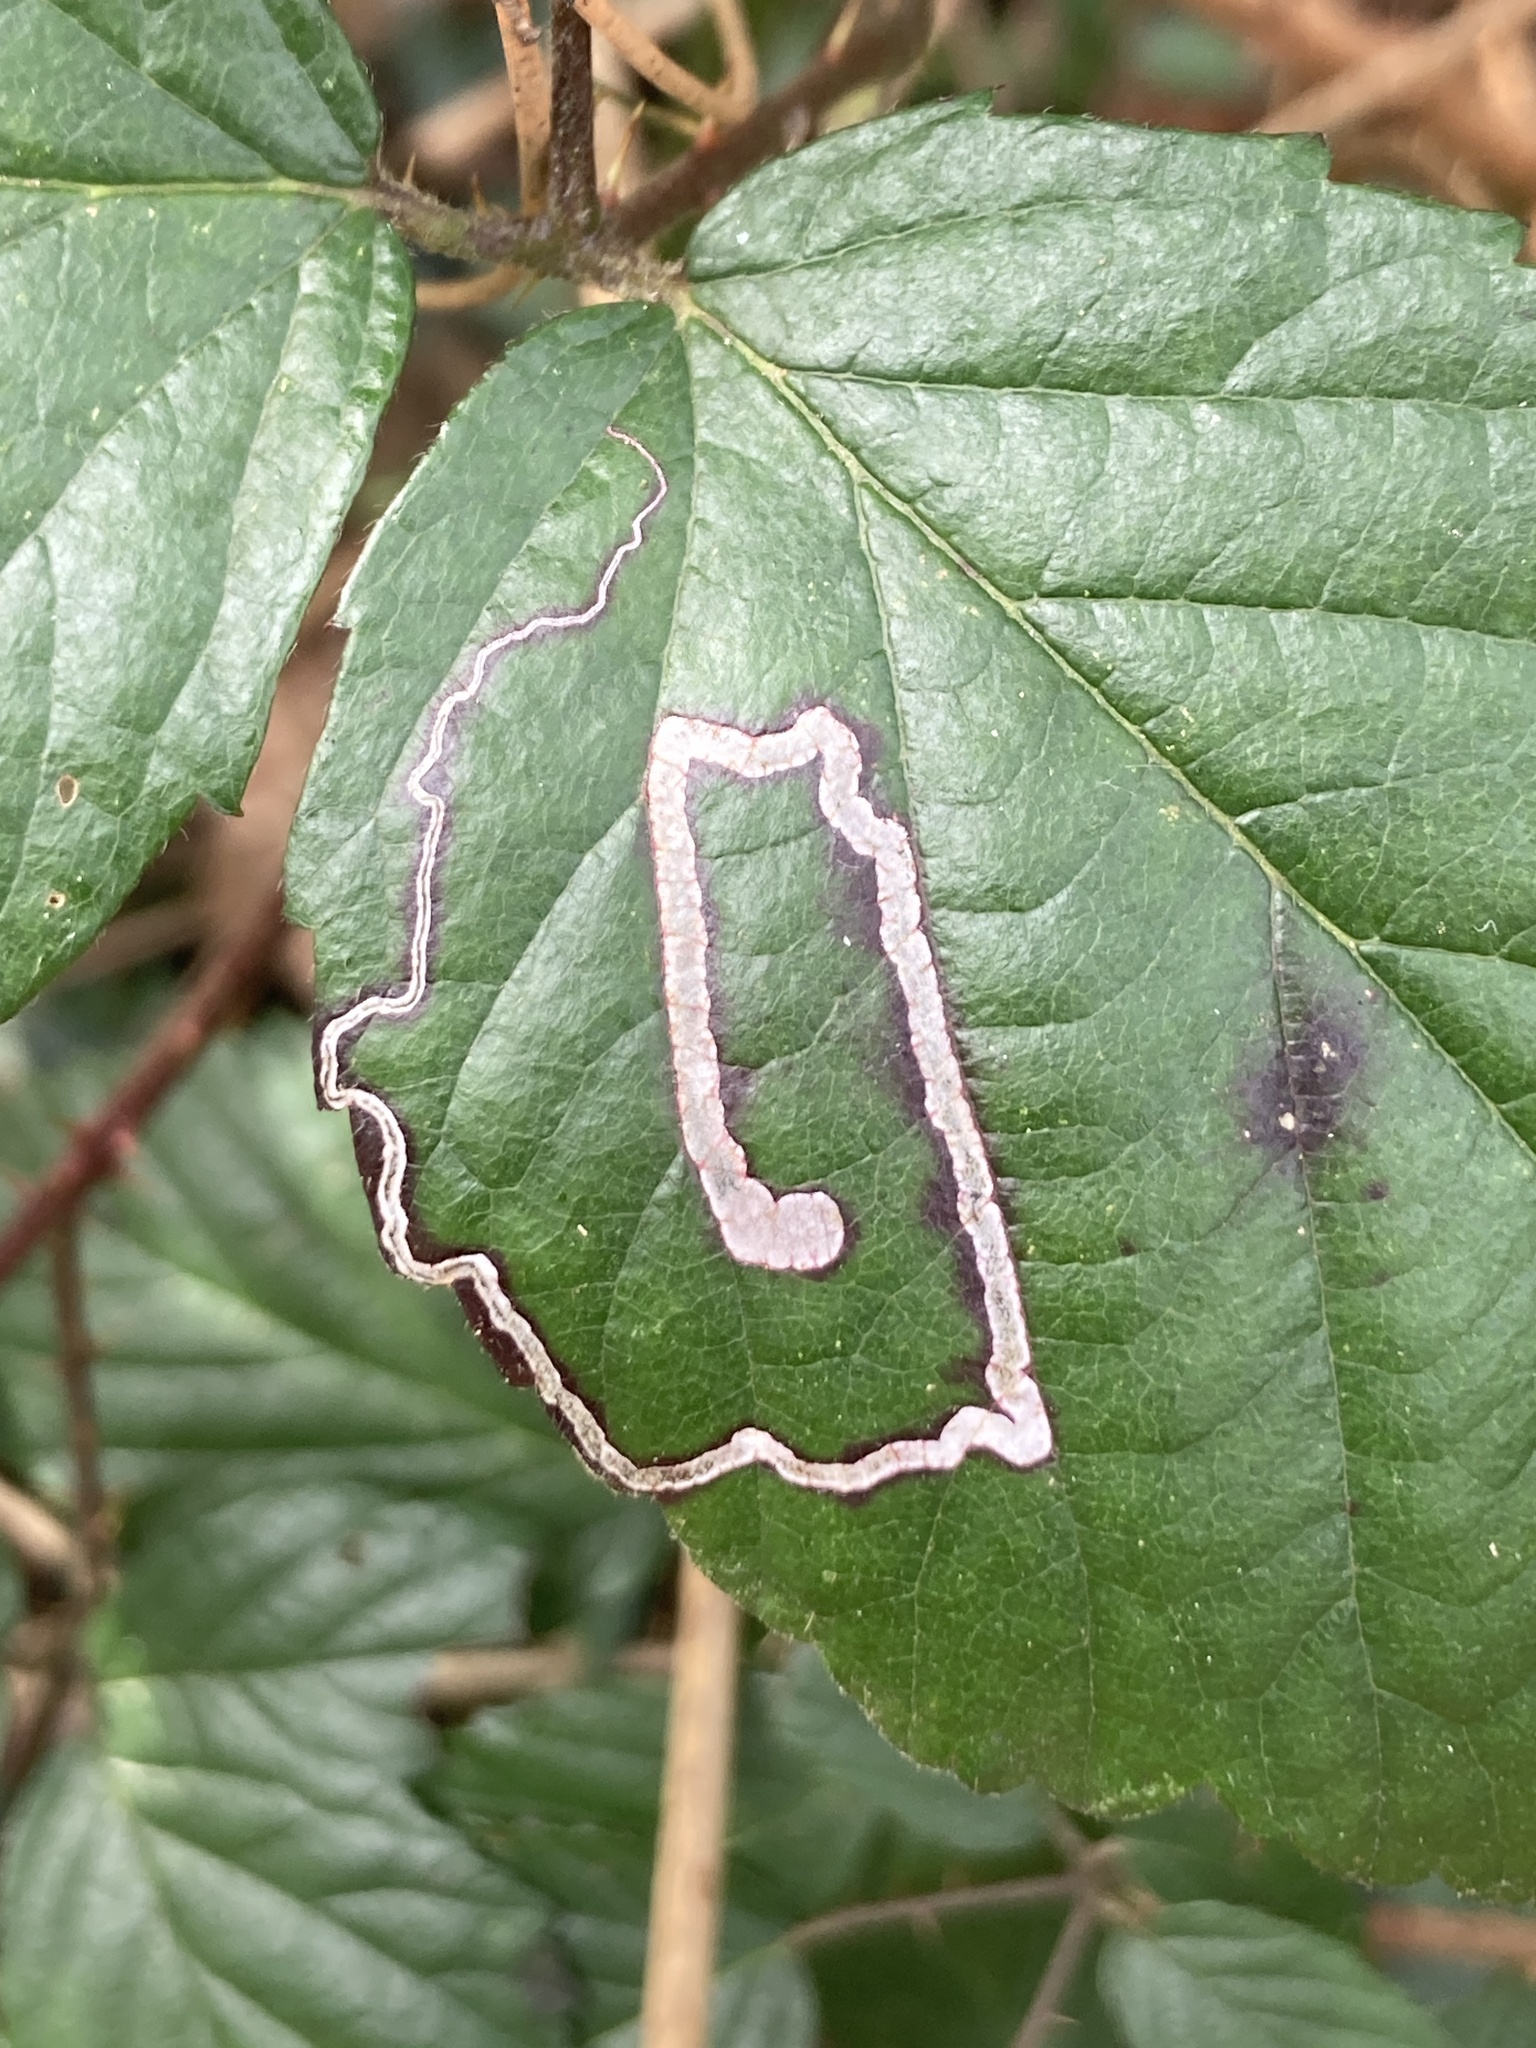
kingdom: Animalia
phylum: Arthropoda
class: Insecta
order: Lepidoptera
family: Nepticulidae
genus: Stigmella
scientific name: Stigmella aurella
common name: Golden pigmy
